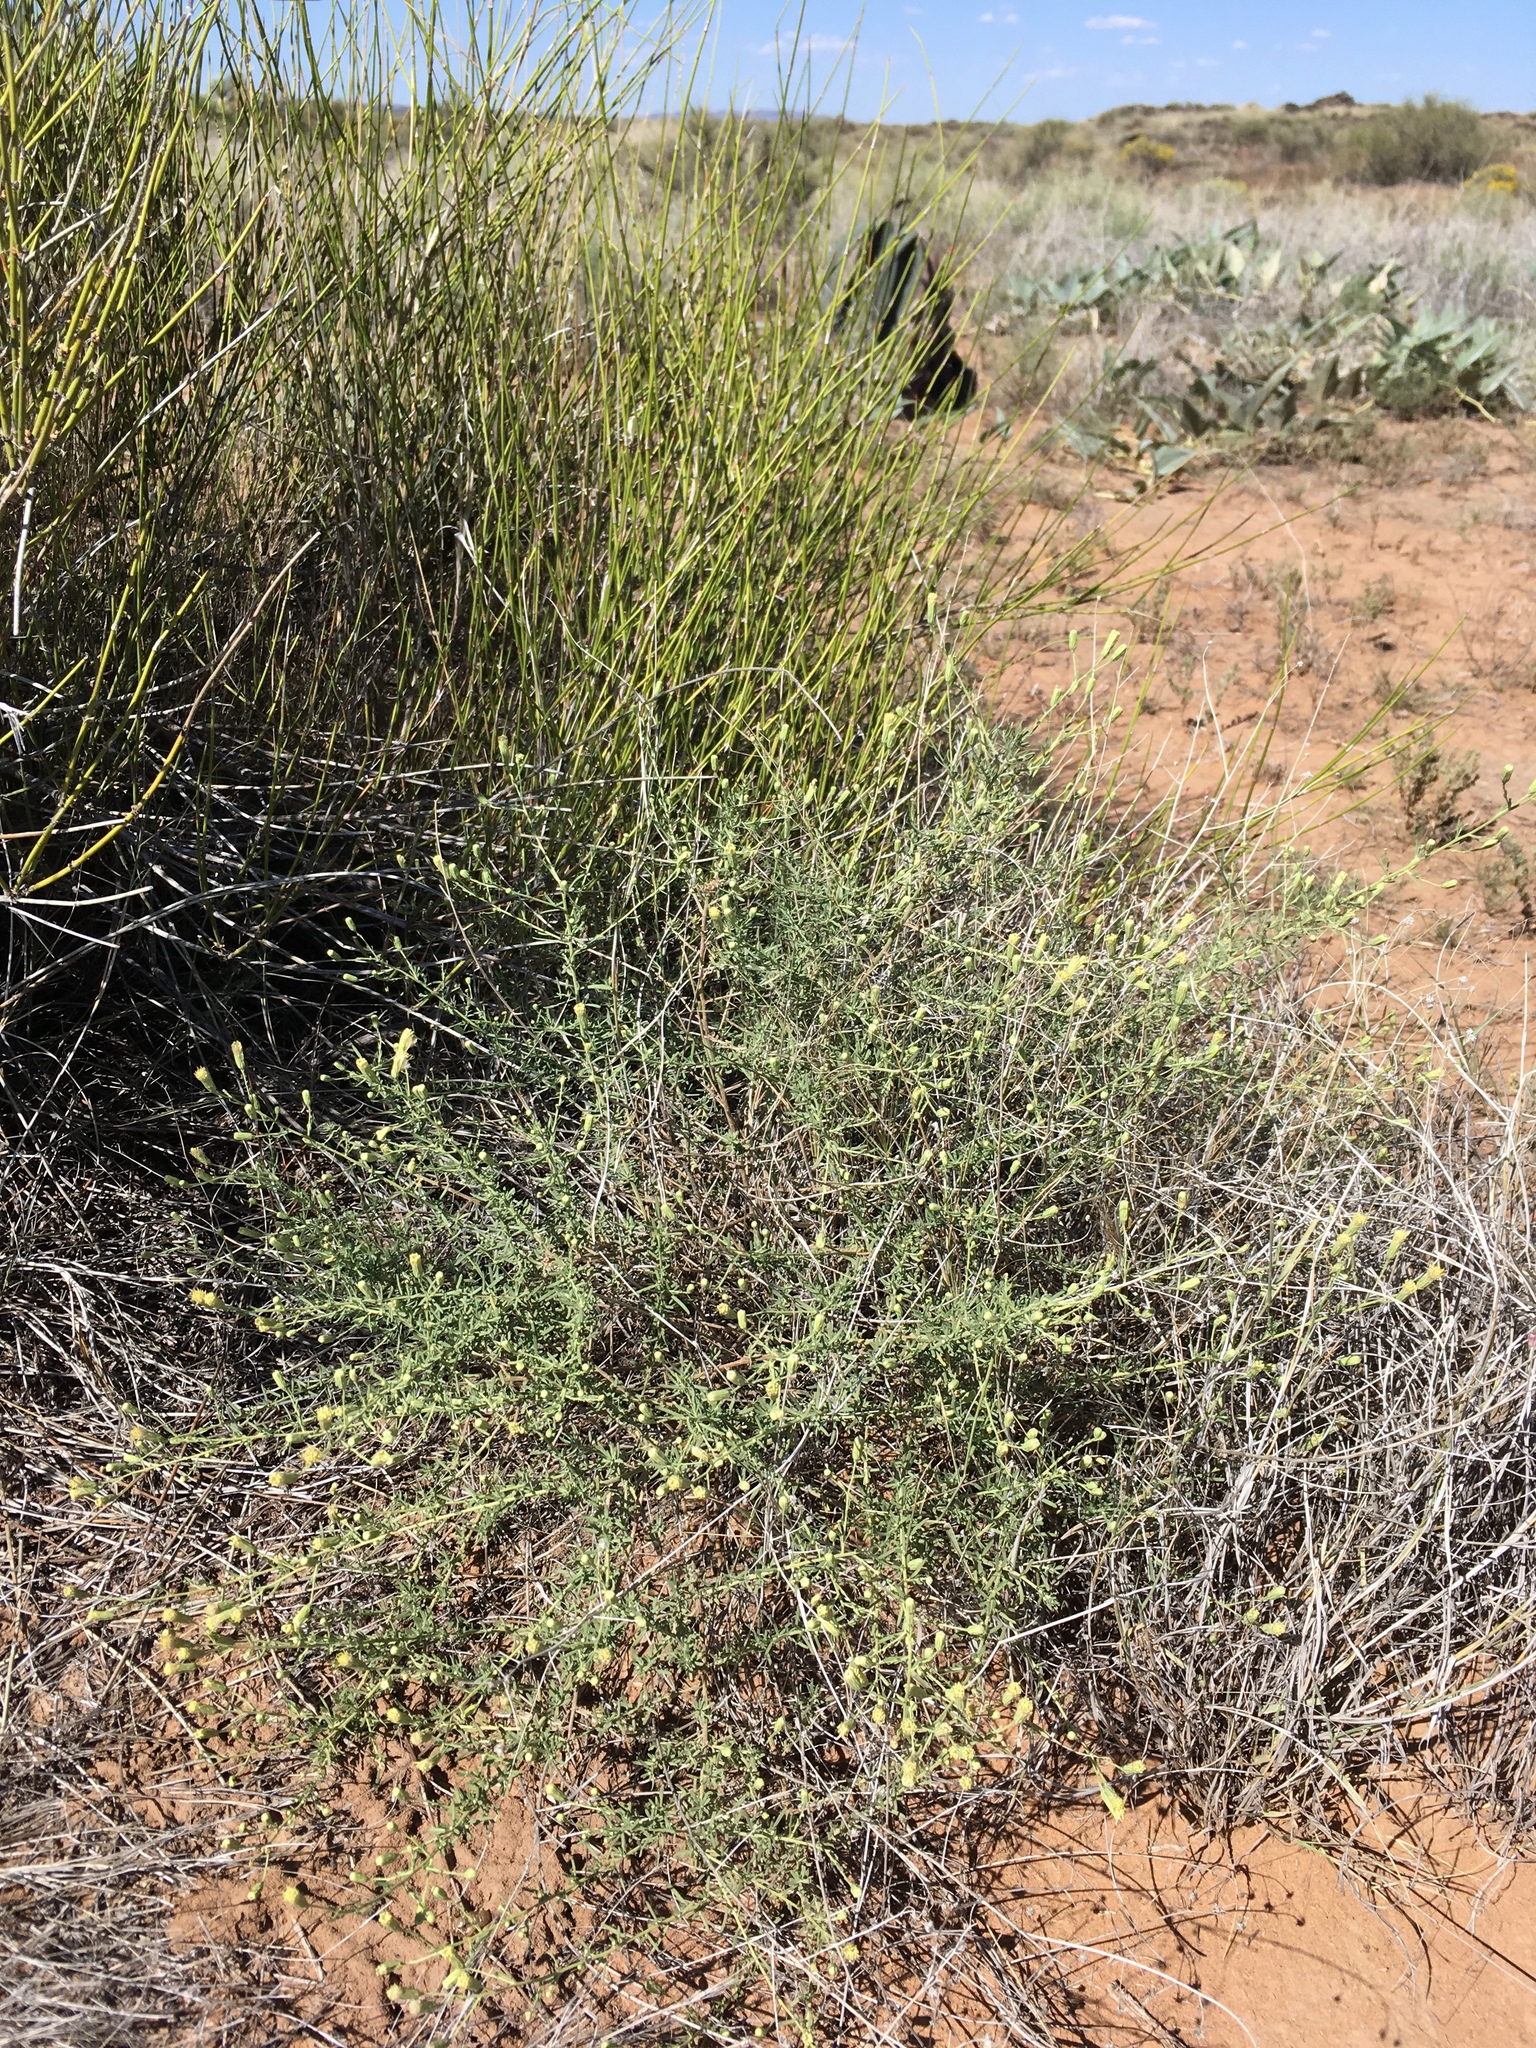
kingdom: Plantae
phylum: Tracheophyta
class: Magnoliopsida
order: Asterales
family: Asteraceae
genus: Brickellia
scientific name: Brickellia eupatorioides
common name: False boneset
